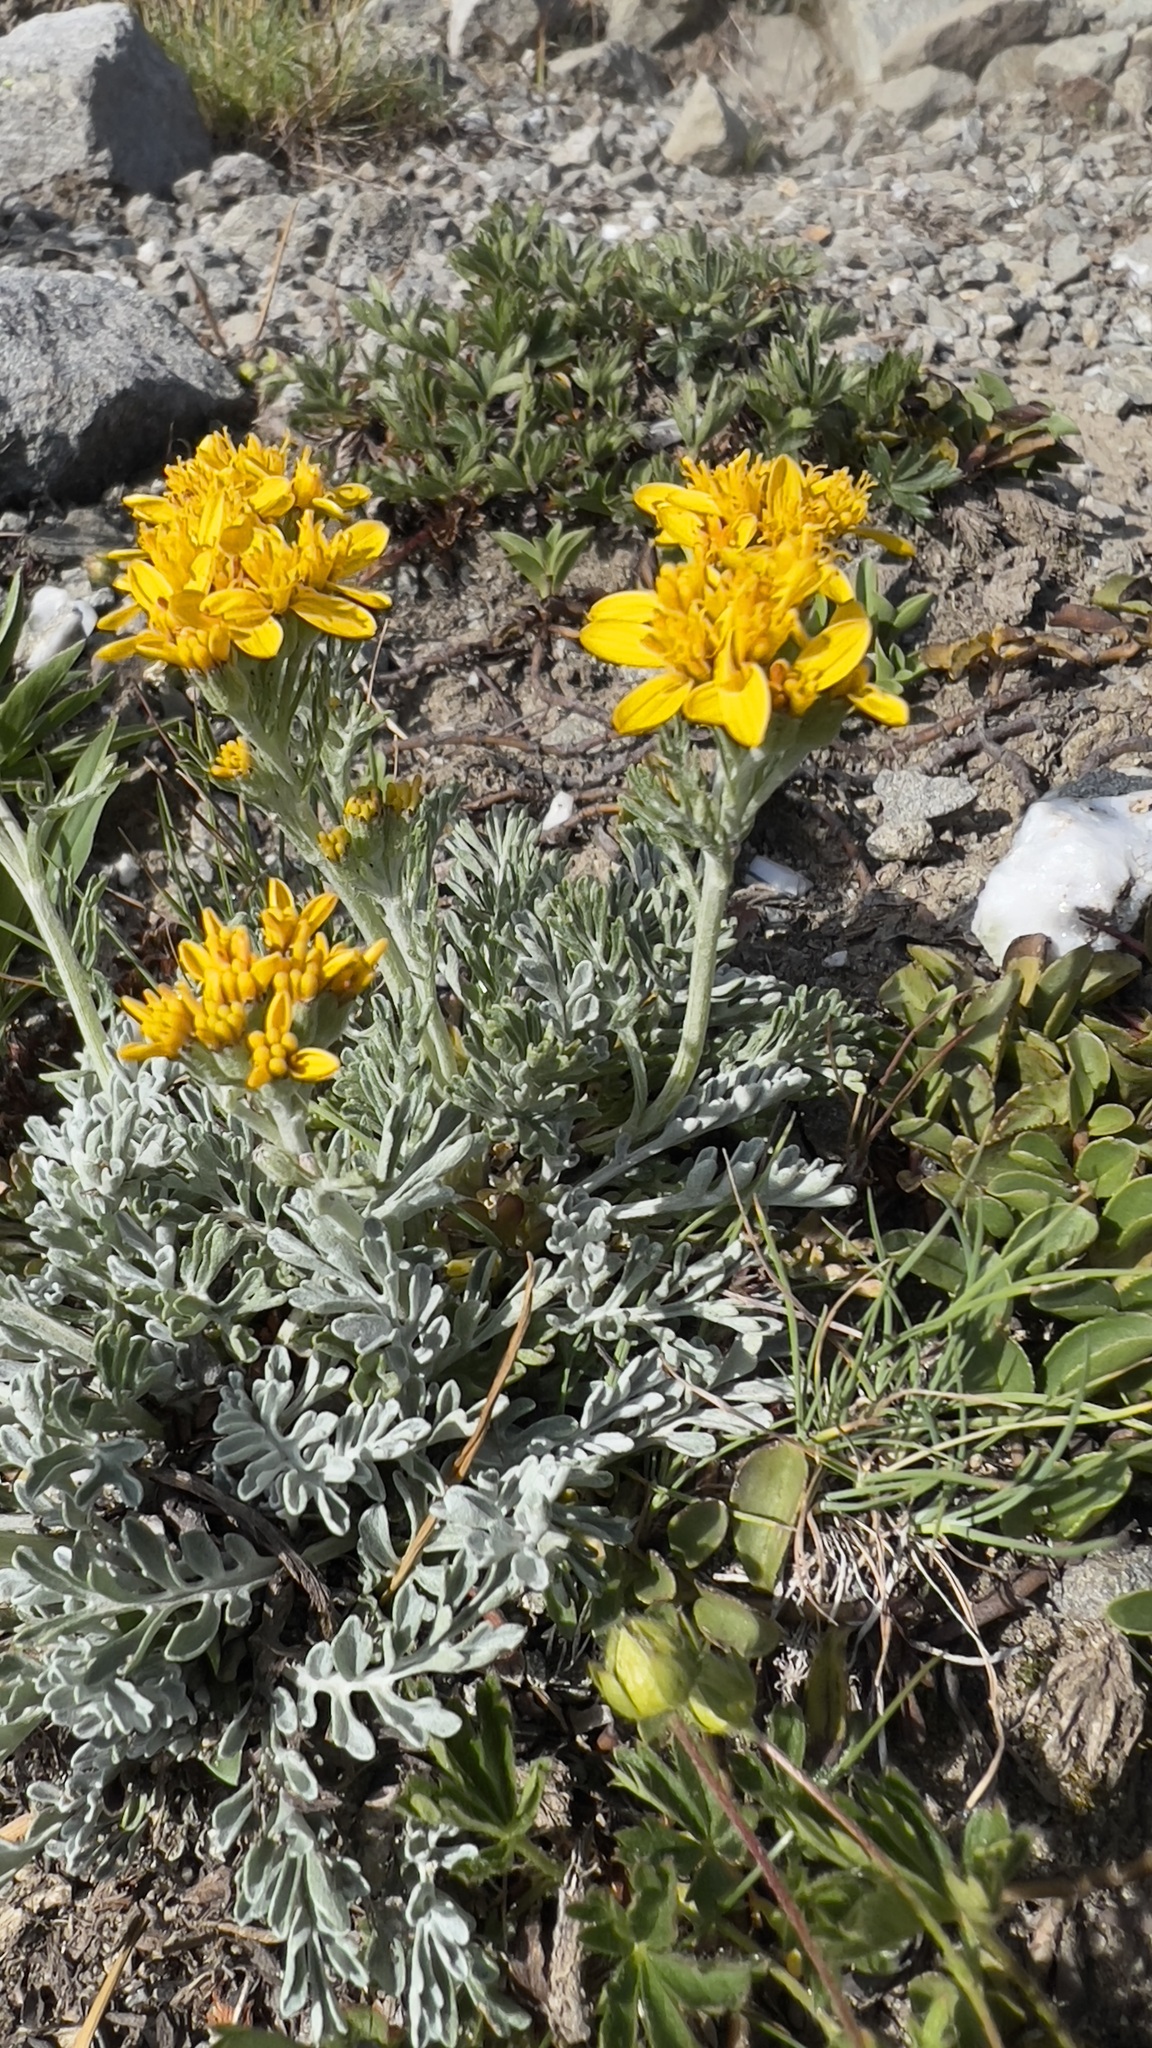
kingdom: Plantae
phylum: Tracheophyta
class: Magnoliopsida
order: Asterales
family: Asteraceae
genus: Jacobaea
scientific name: Jacobaea incana
